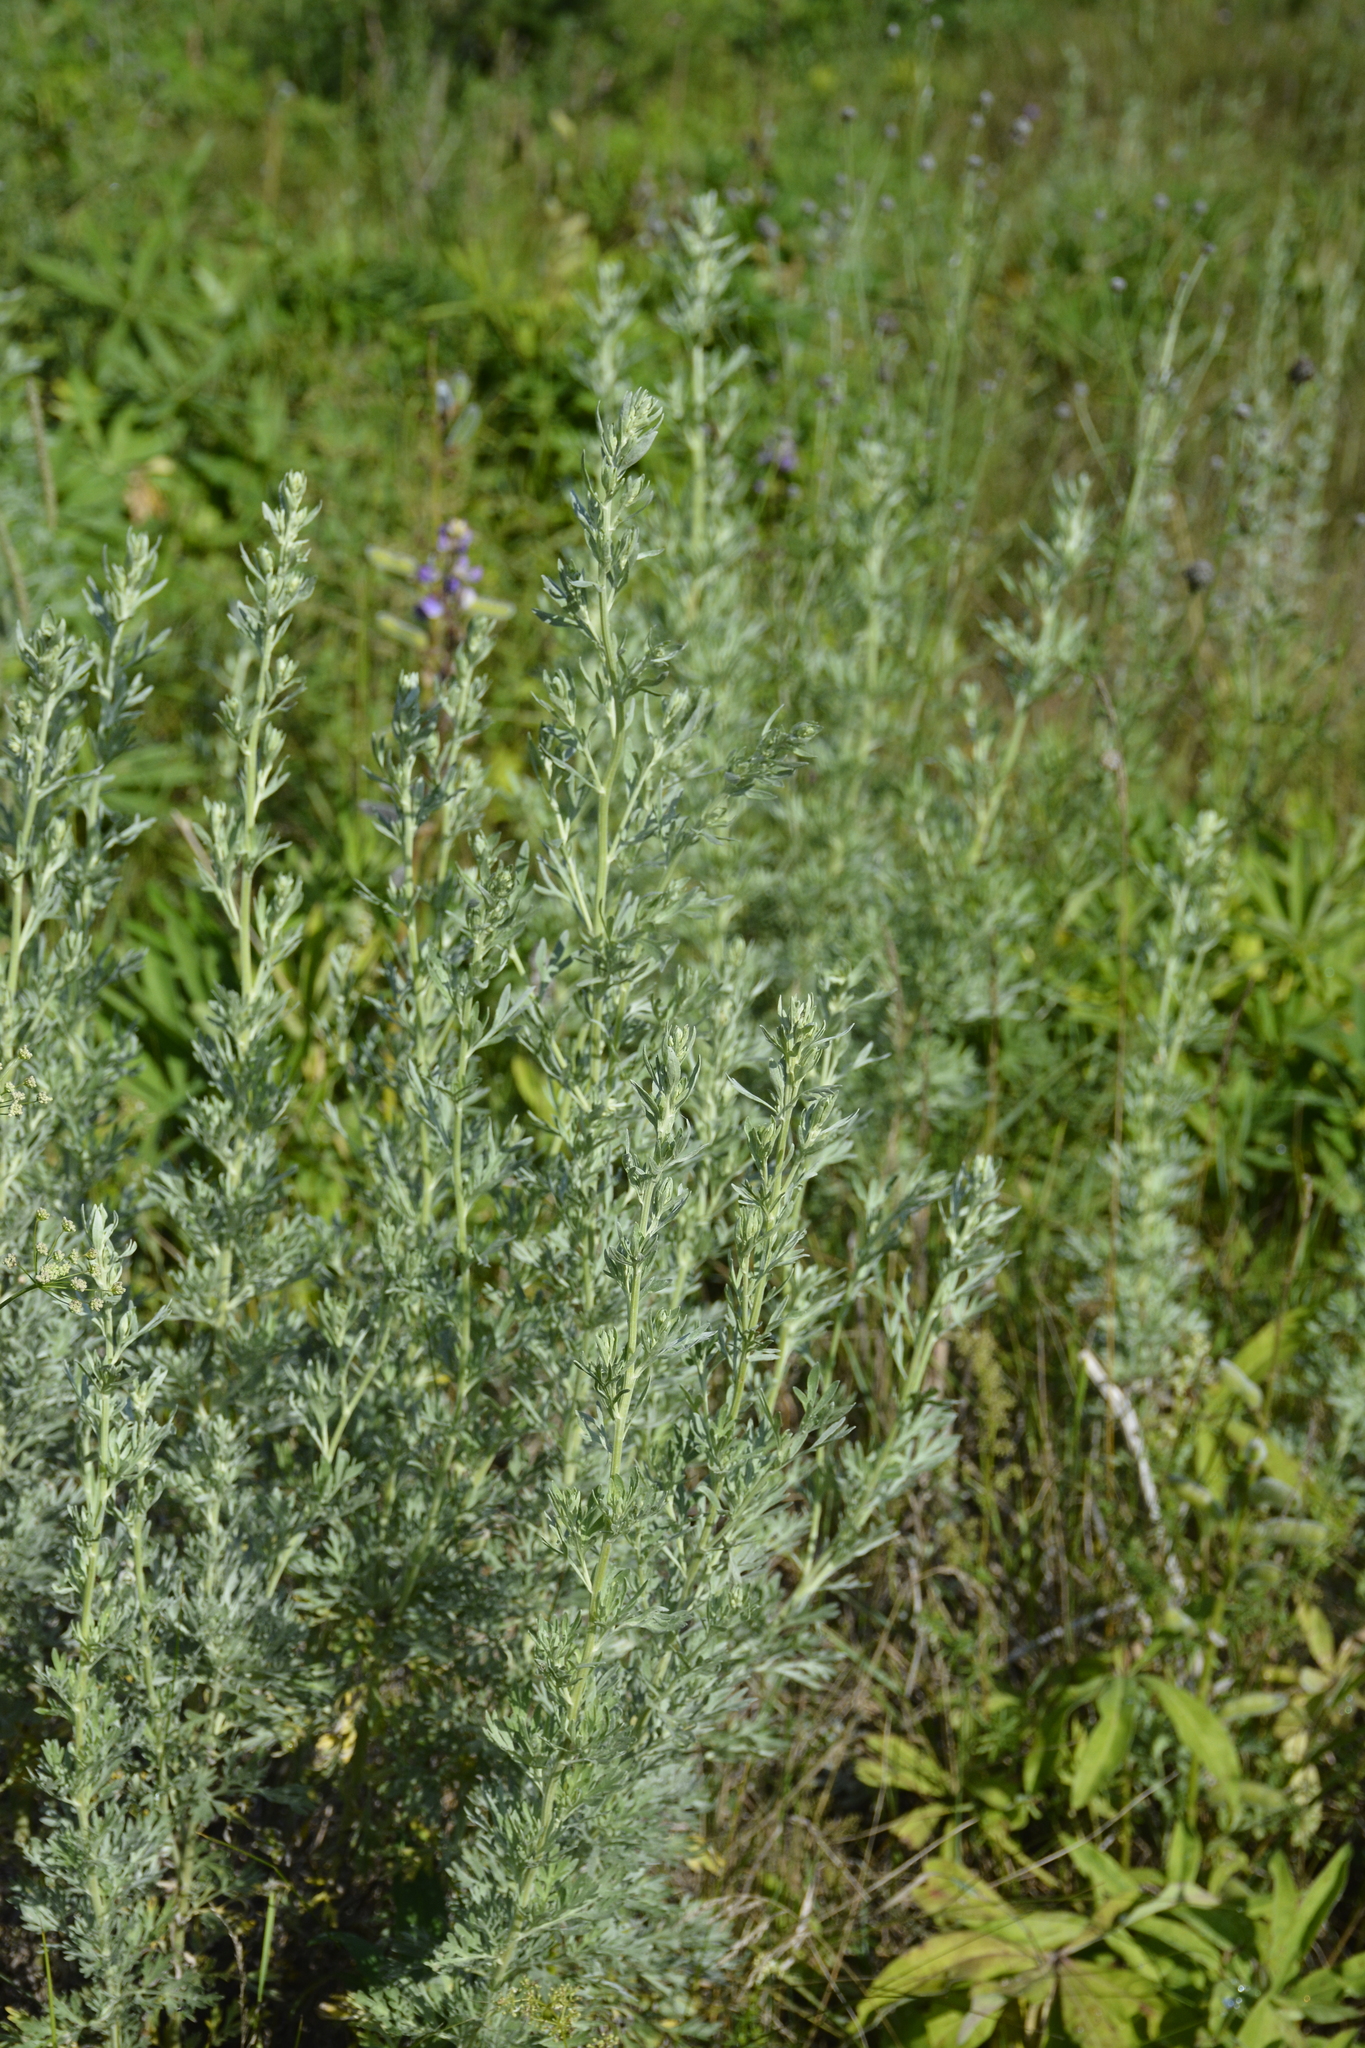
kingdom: Plantae
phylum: Tracheophyta
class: Magnoliopsida
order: Asterales
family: Asteraceae
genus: Artemisia
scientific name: Artemisia absinthium
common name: Wormwood
